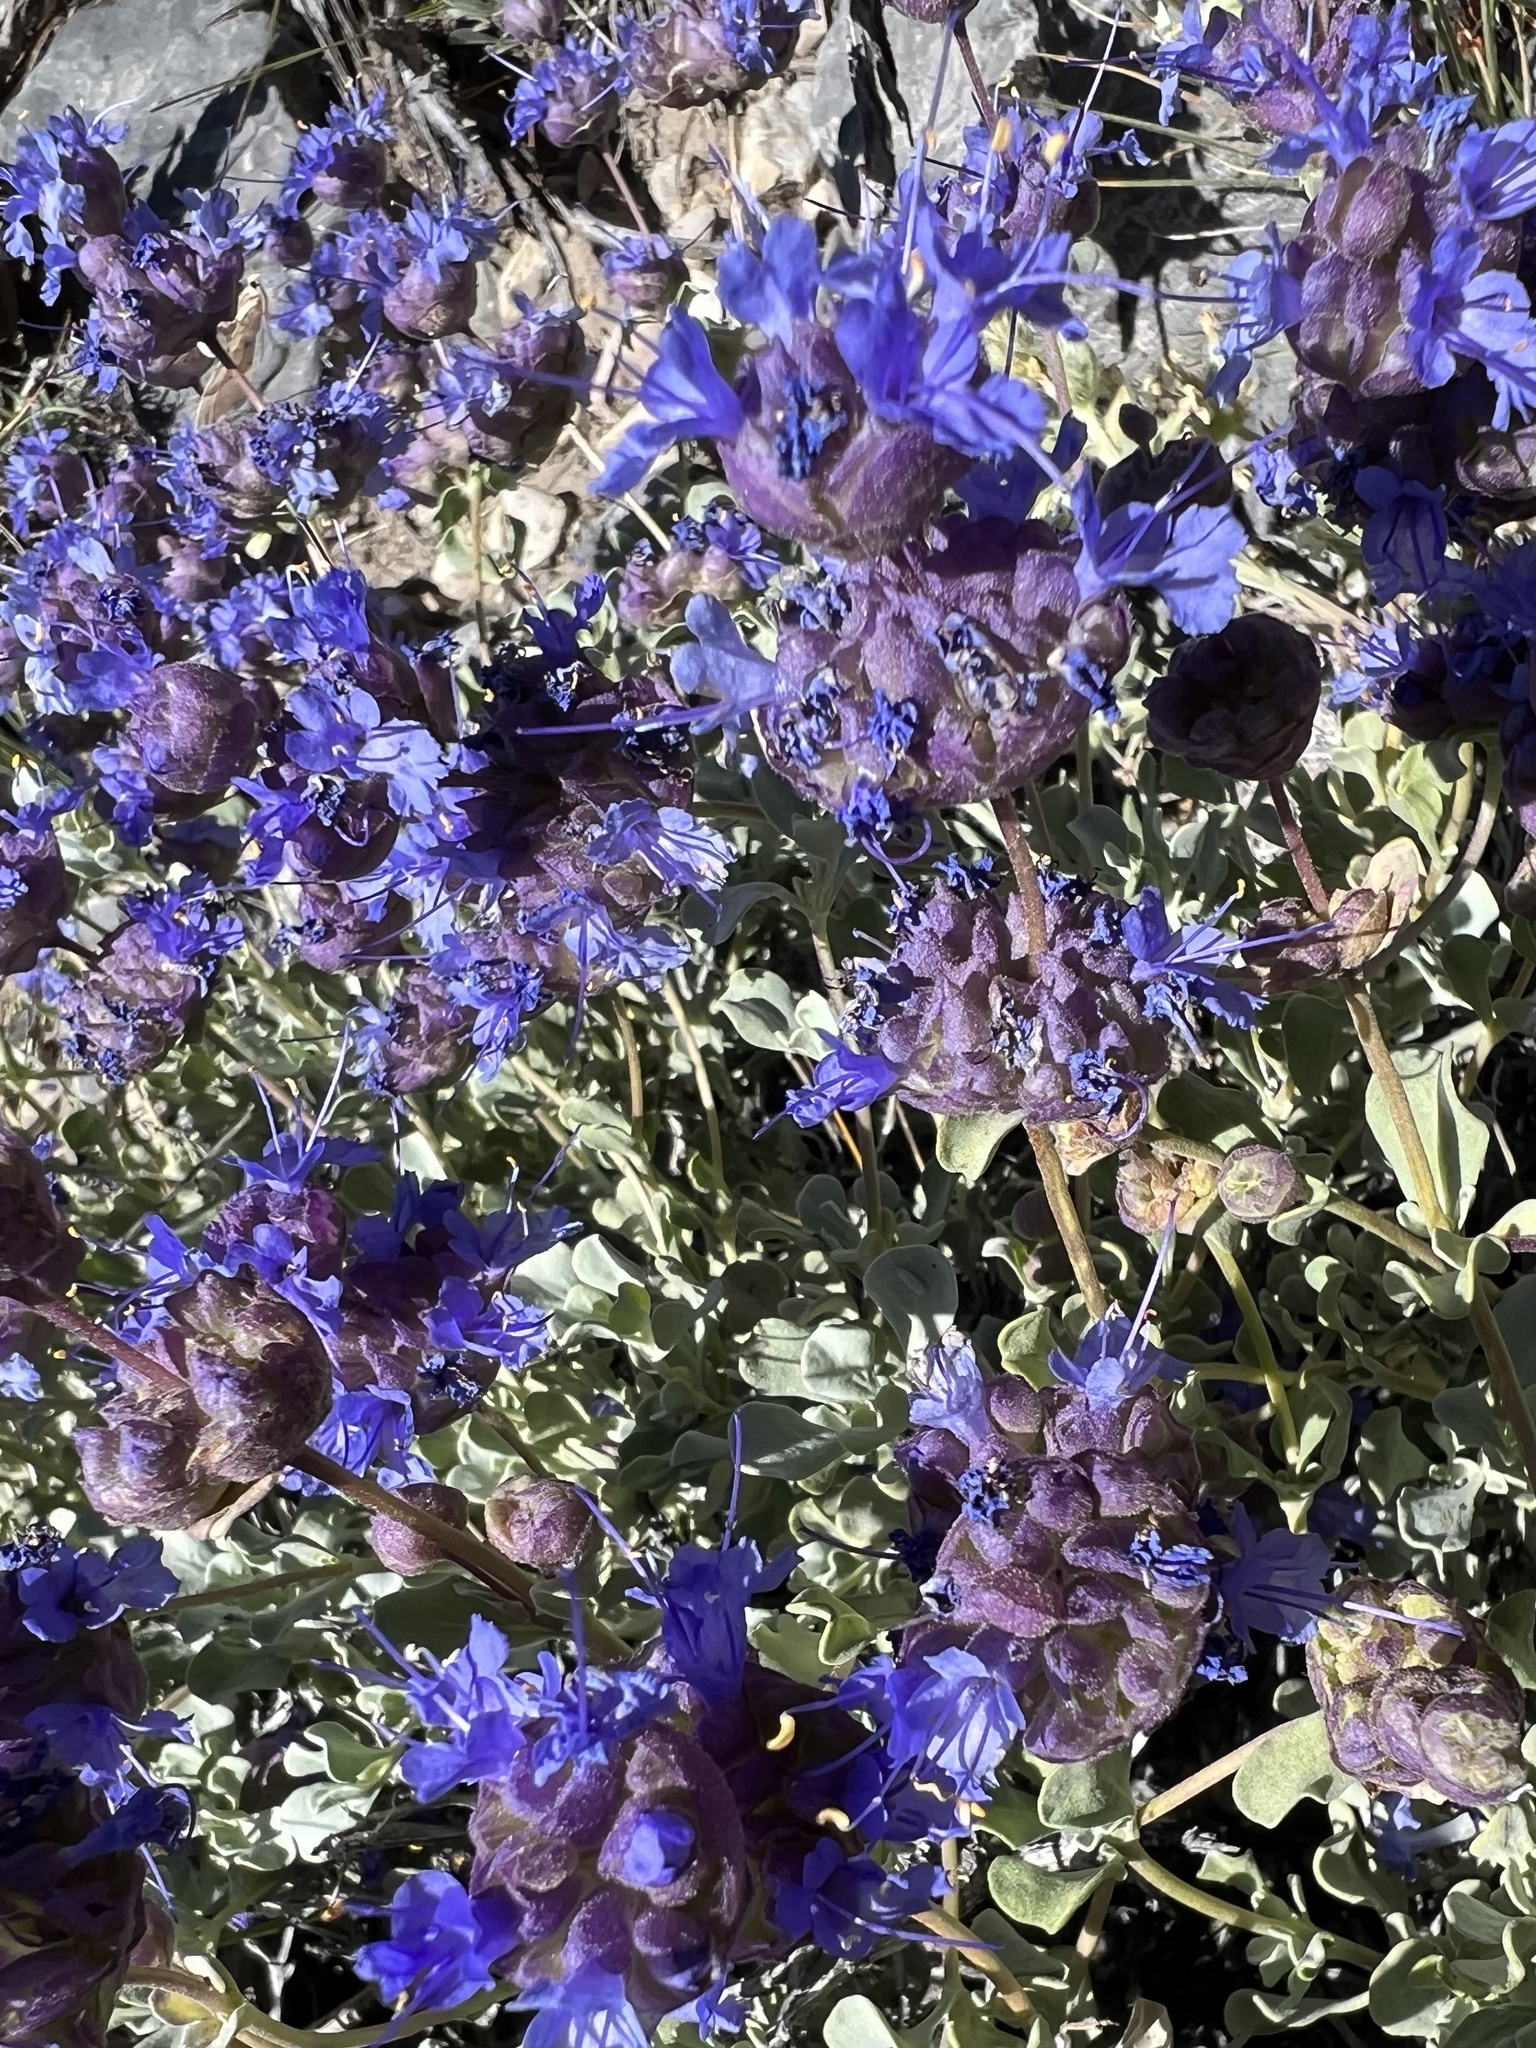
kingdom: Plantae
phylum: Tracheophyta
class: Magnoliopsida
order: Lamiales
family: Lamiaceae
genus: Salvia
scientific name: Salvia dorrii
